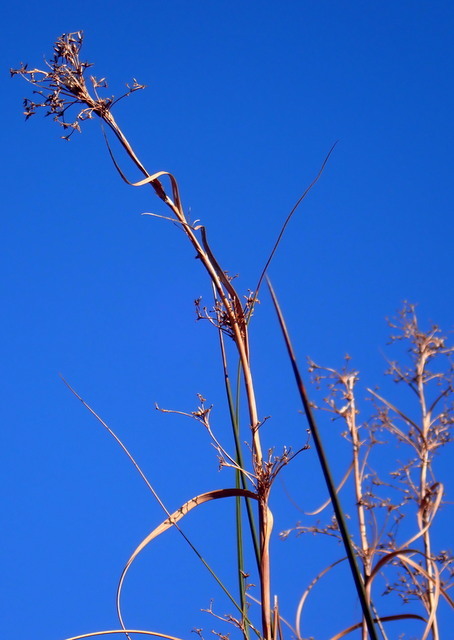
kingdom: Plantae
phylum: Tracheophyta
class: Liliopsida
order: Poales
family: Cyperaceae
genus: Cladium
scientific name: Cladium mariscus
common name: Great fen-sedge
